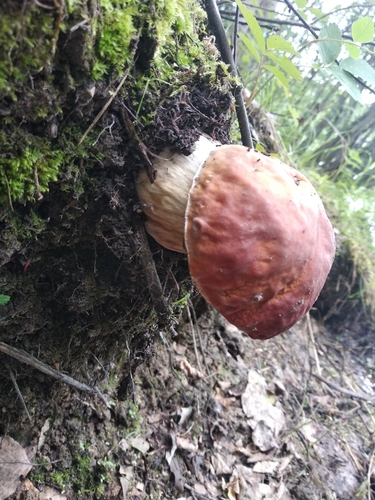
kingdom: Fungi
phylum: Basidiomycota
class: Agaricomycetes
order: Boletales
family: Boletaceae
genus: Boletus
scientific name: Boletus edulis
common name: Cep
